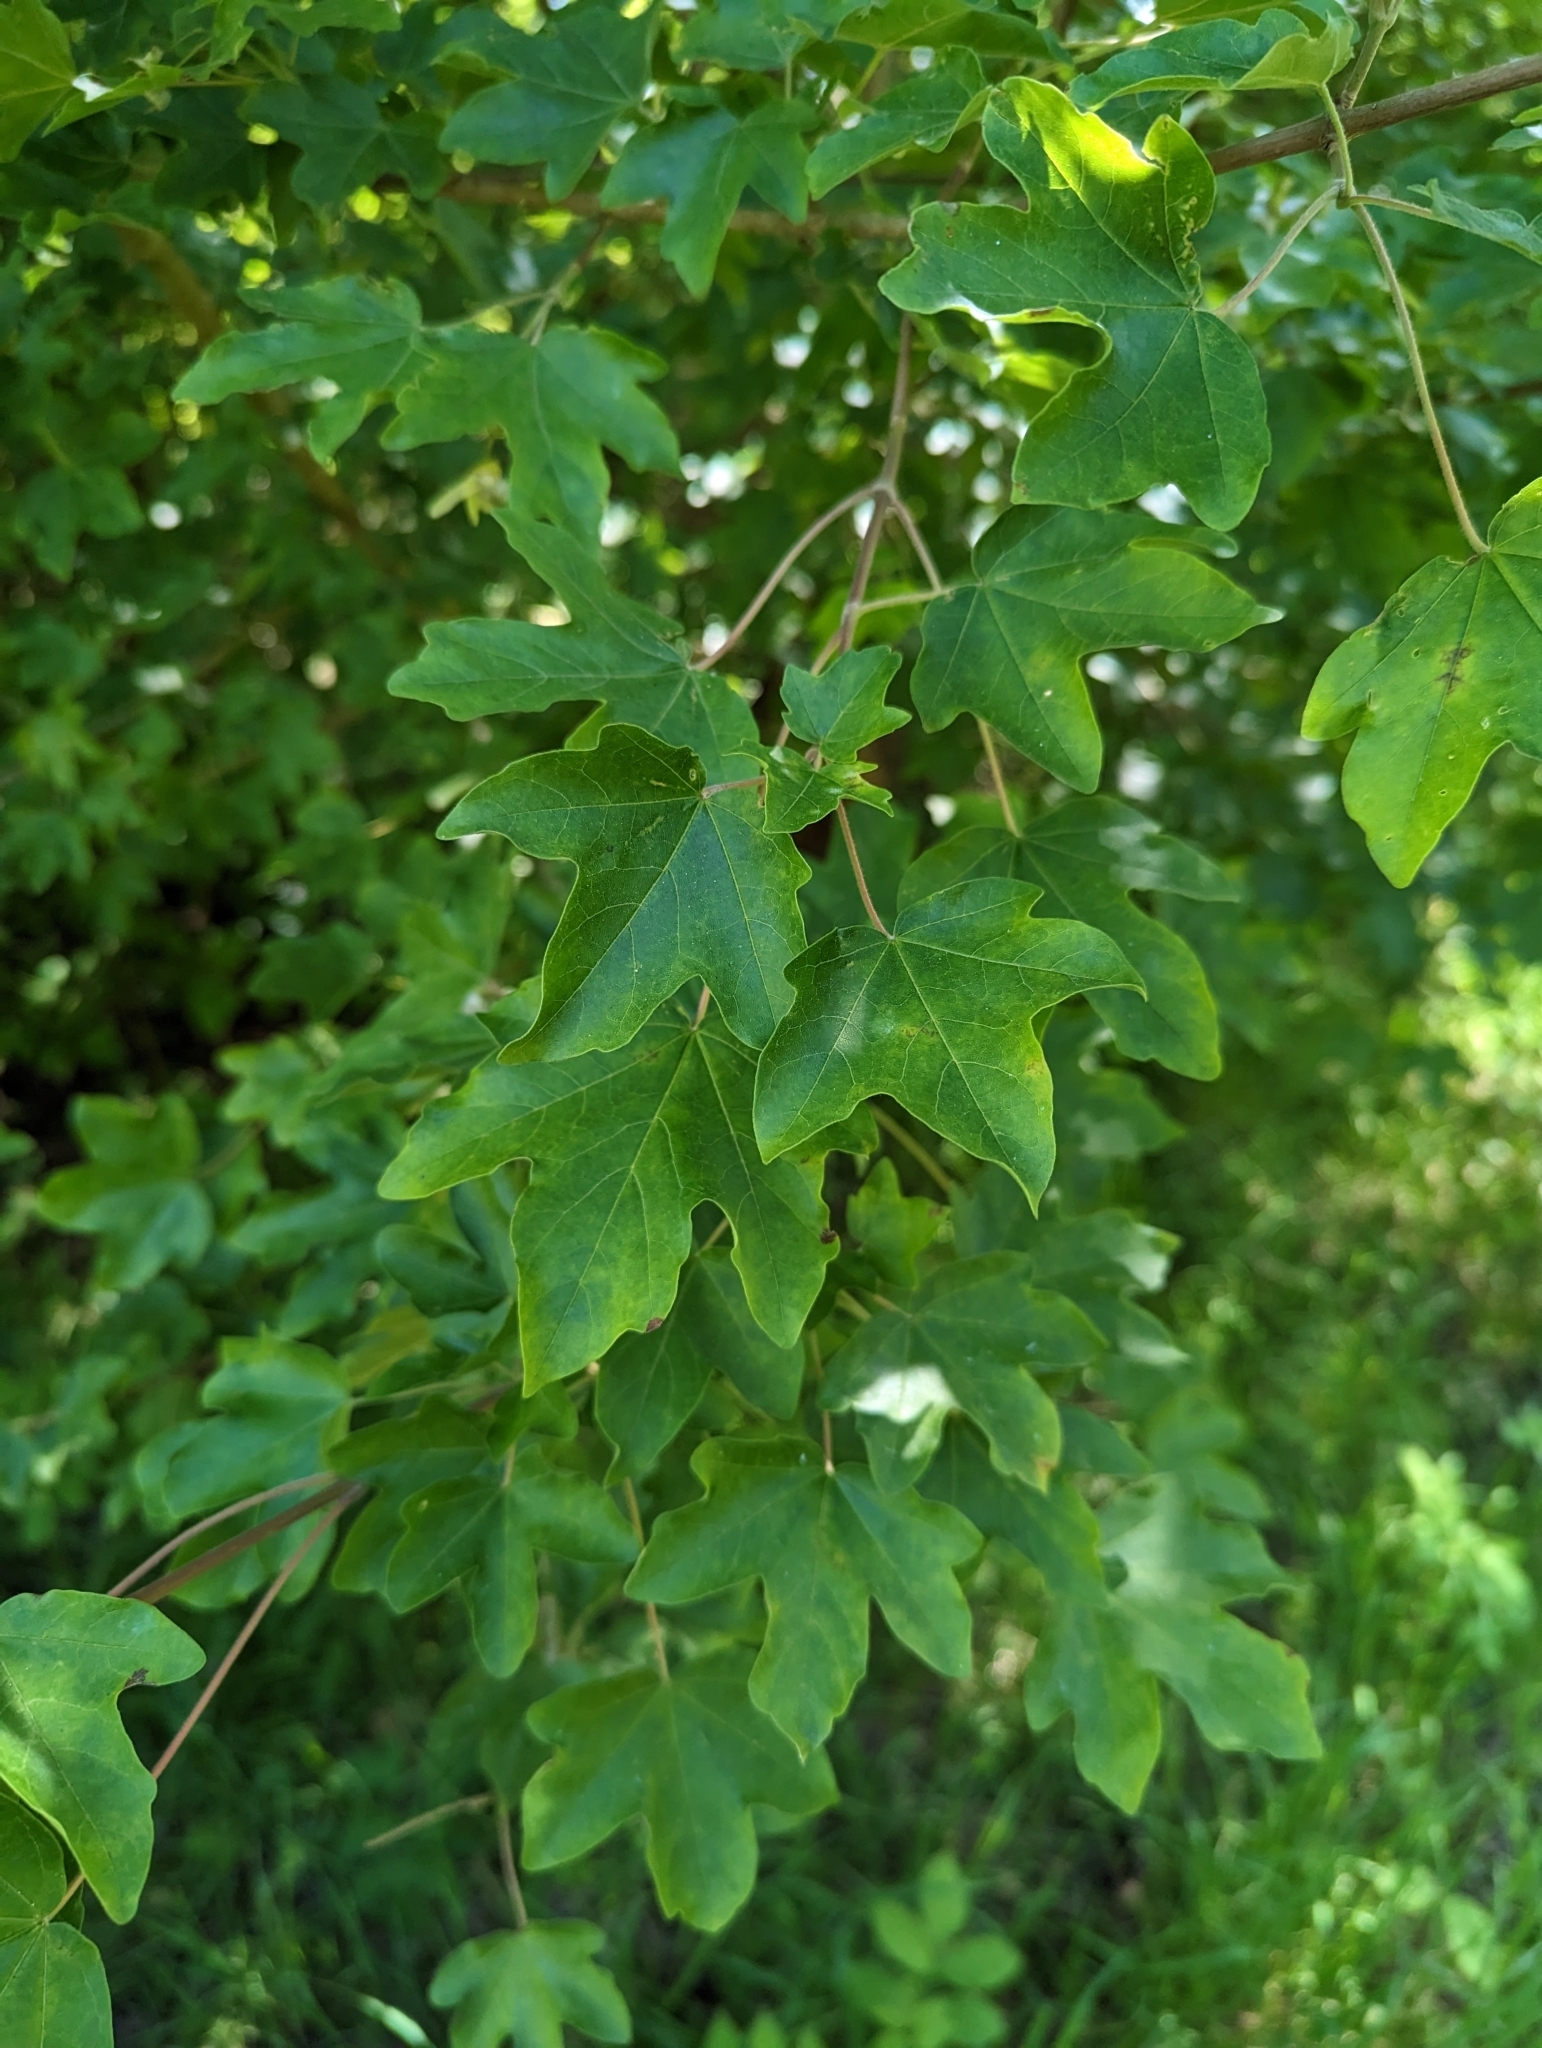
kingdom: Plantae
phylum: Tracheophyta
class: Magnoliopsida
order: Sapindales
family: Sapindaceae
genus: Acer
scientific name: Acer campestre
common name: Field maple
